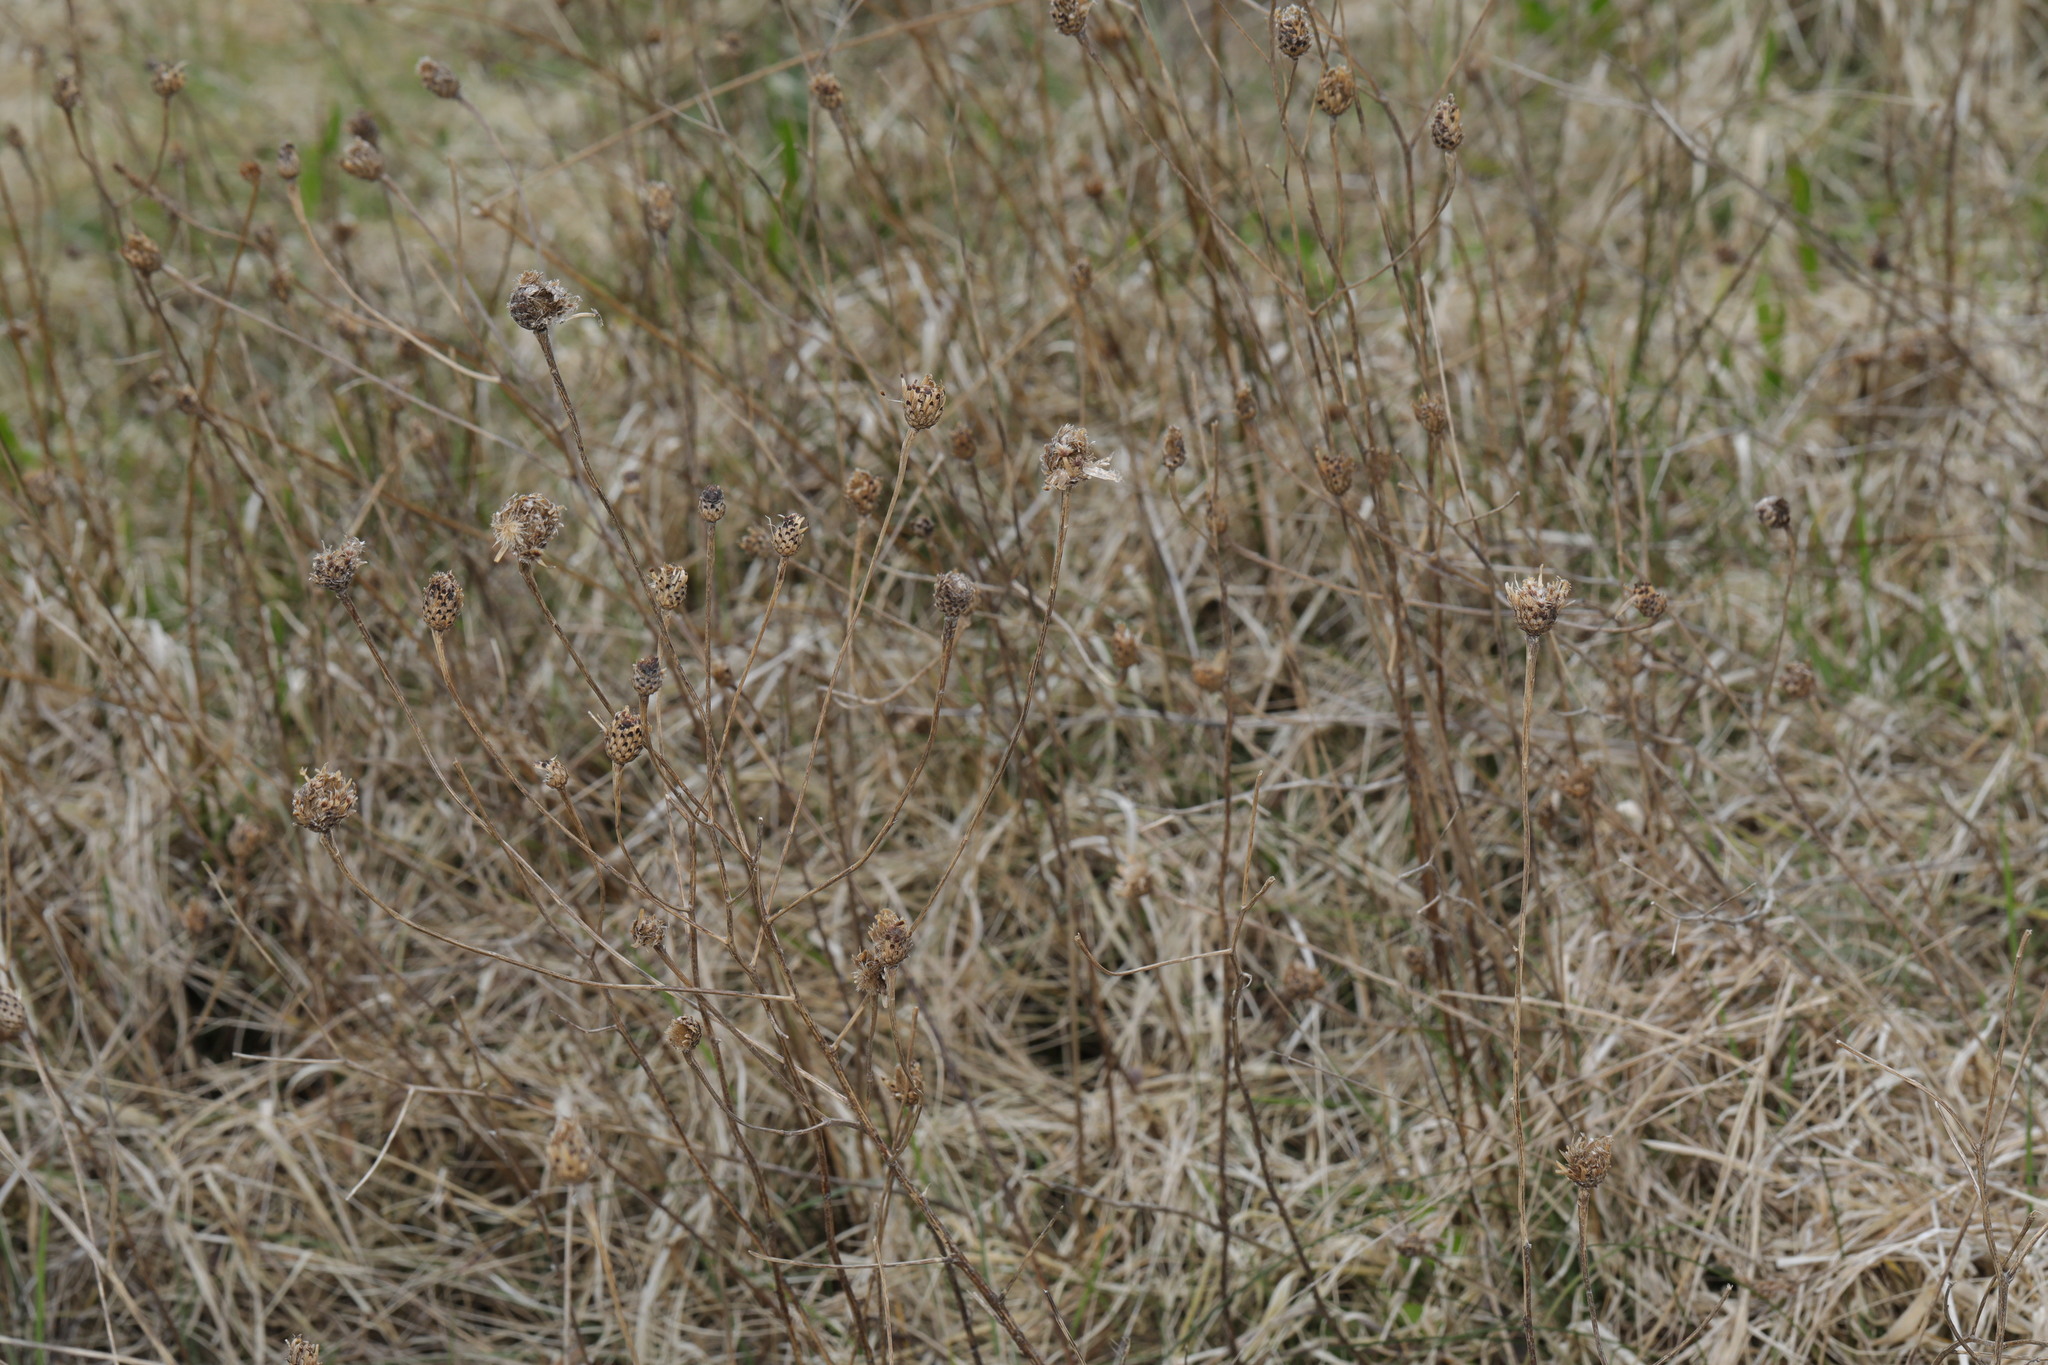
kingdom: Plantae
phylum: Tracheophyta
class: Magnoliopsida
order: Asterales
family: Asteraceae
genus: Centaurea
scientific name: Centaurea nigra
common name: Lesser knapweed
